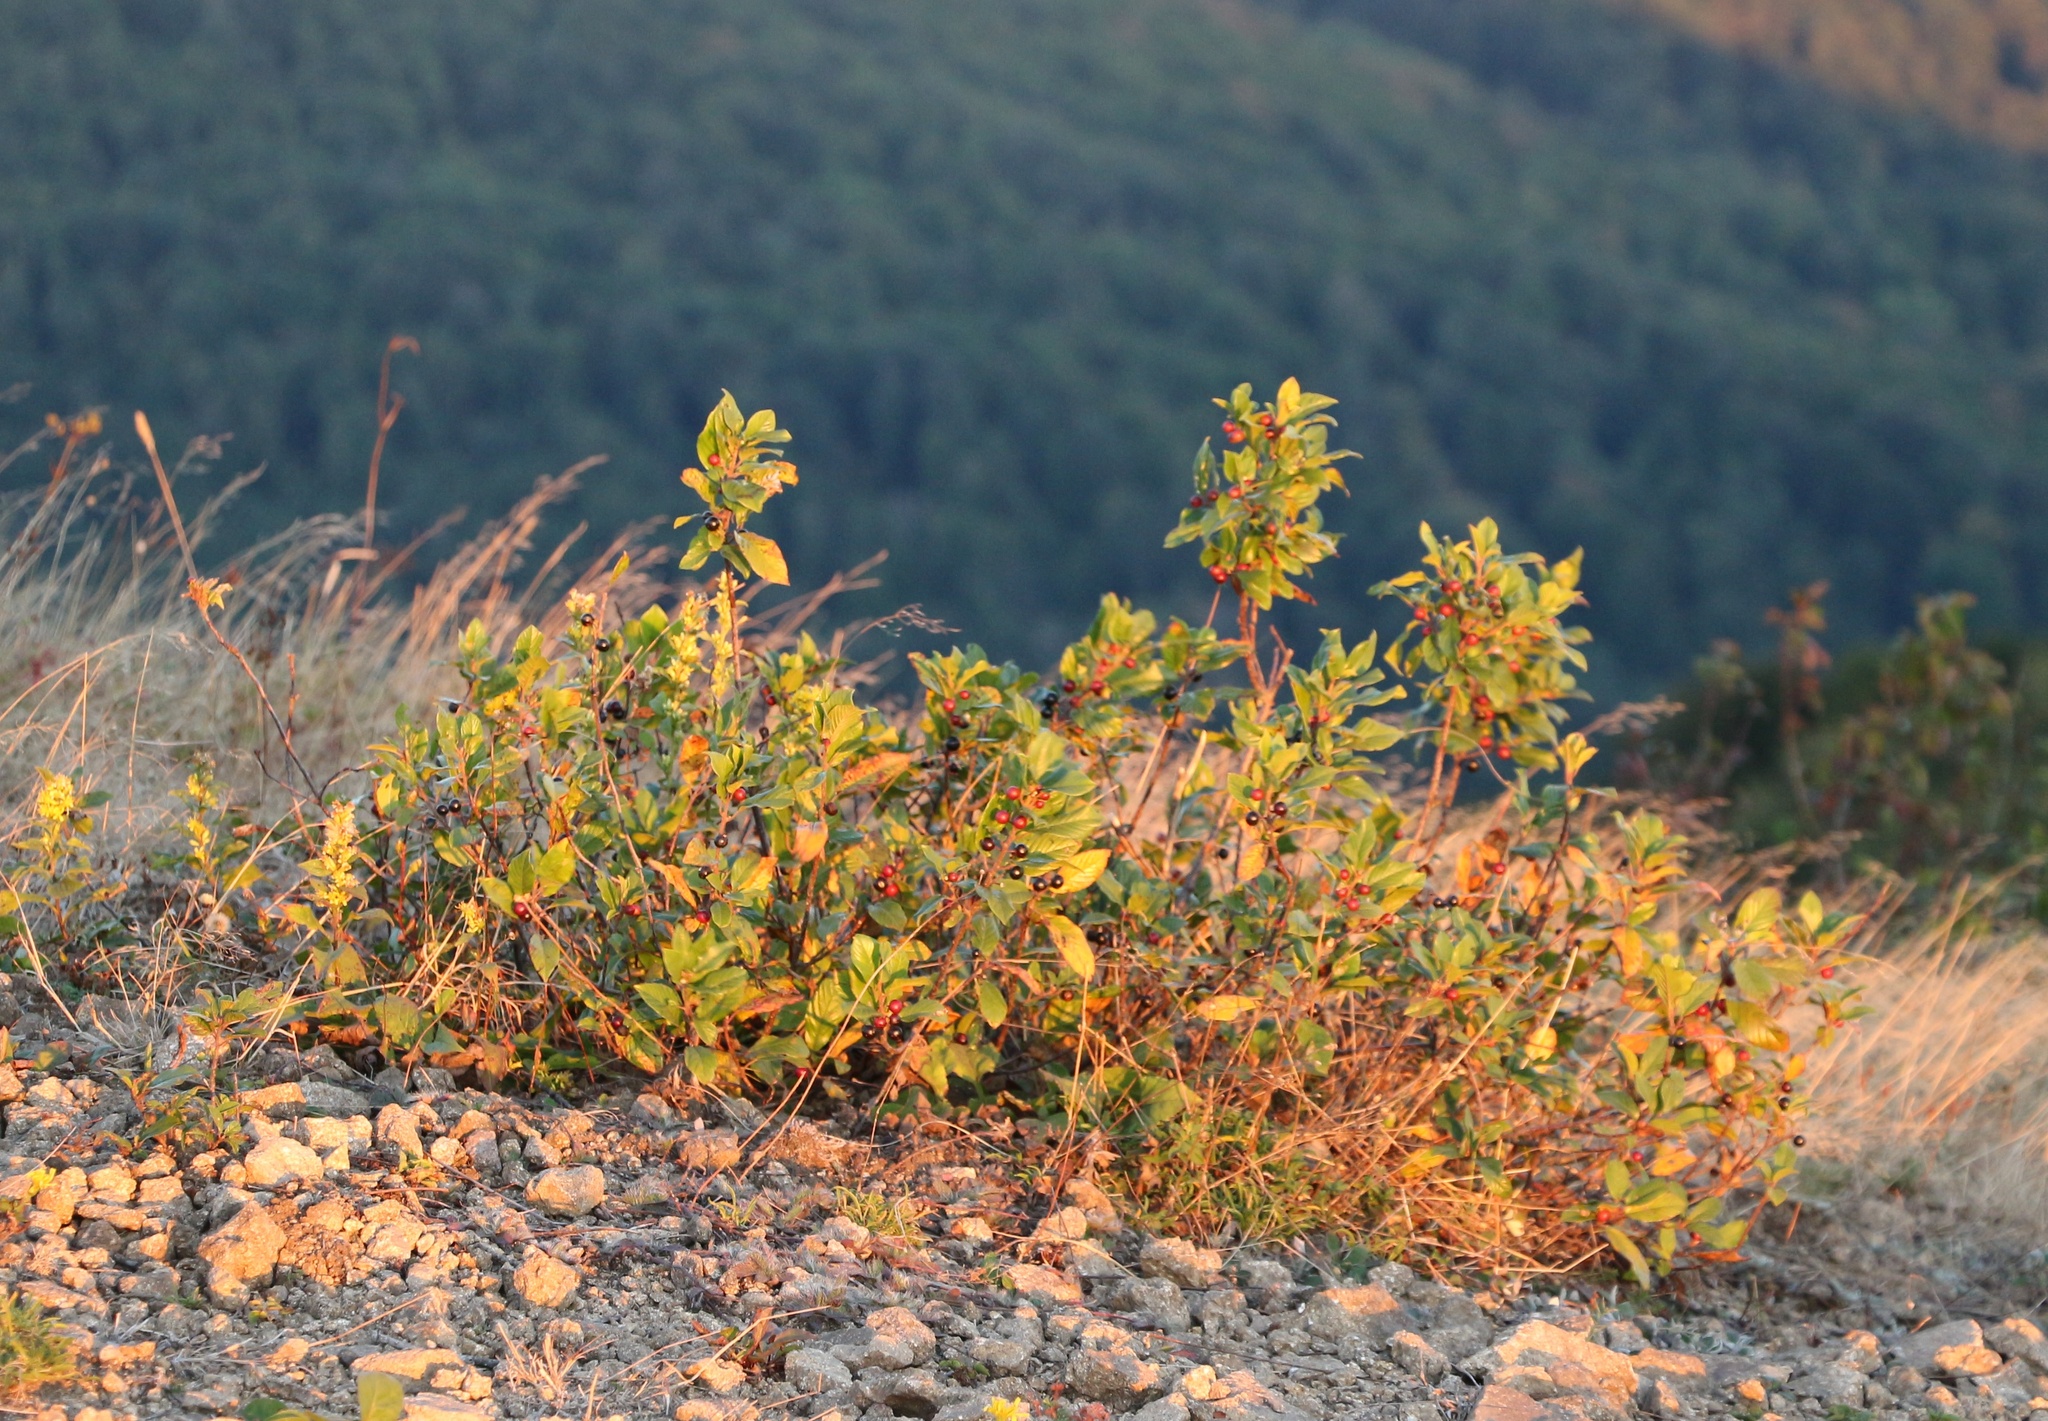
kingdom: Plantae
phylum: Tracheophyta
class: Magnoliopsida
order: Rosales
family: Rhamnaceae
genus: Frangula
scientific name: Frangula alnus
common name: Alder buckthorn
